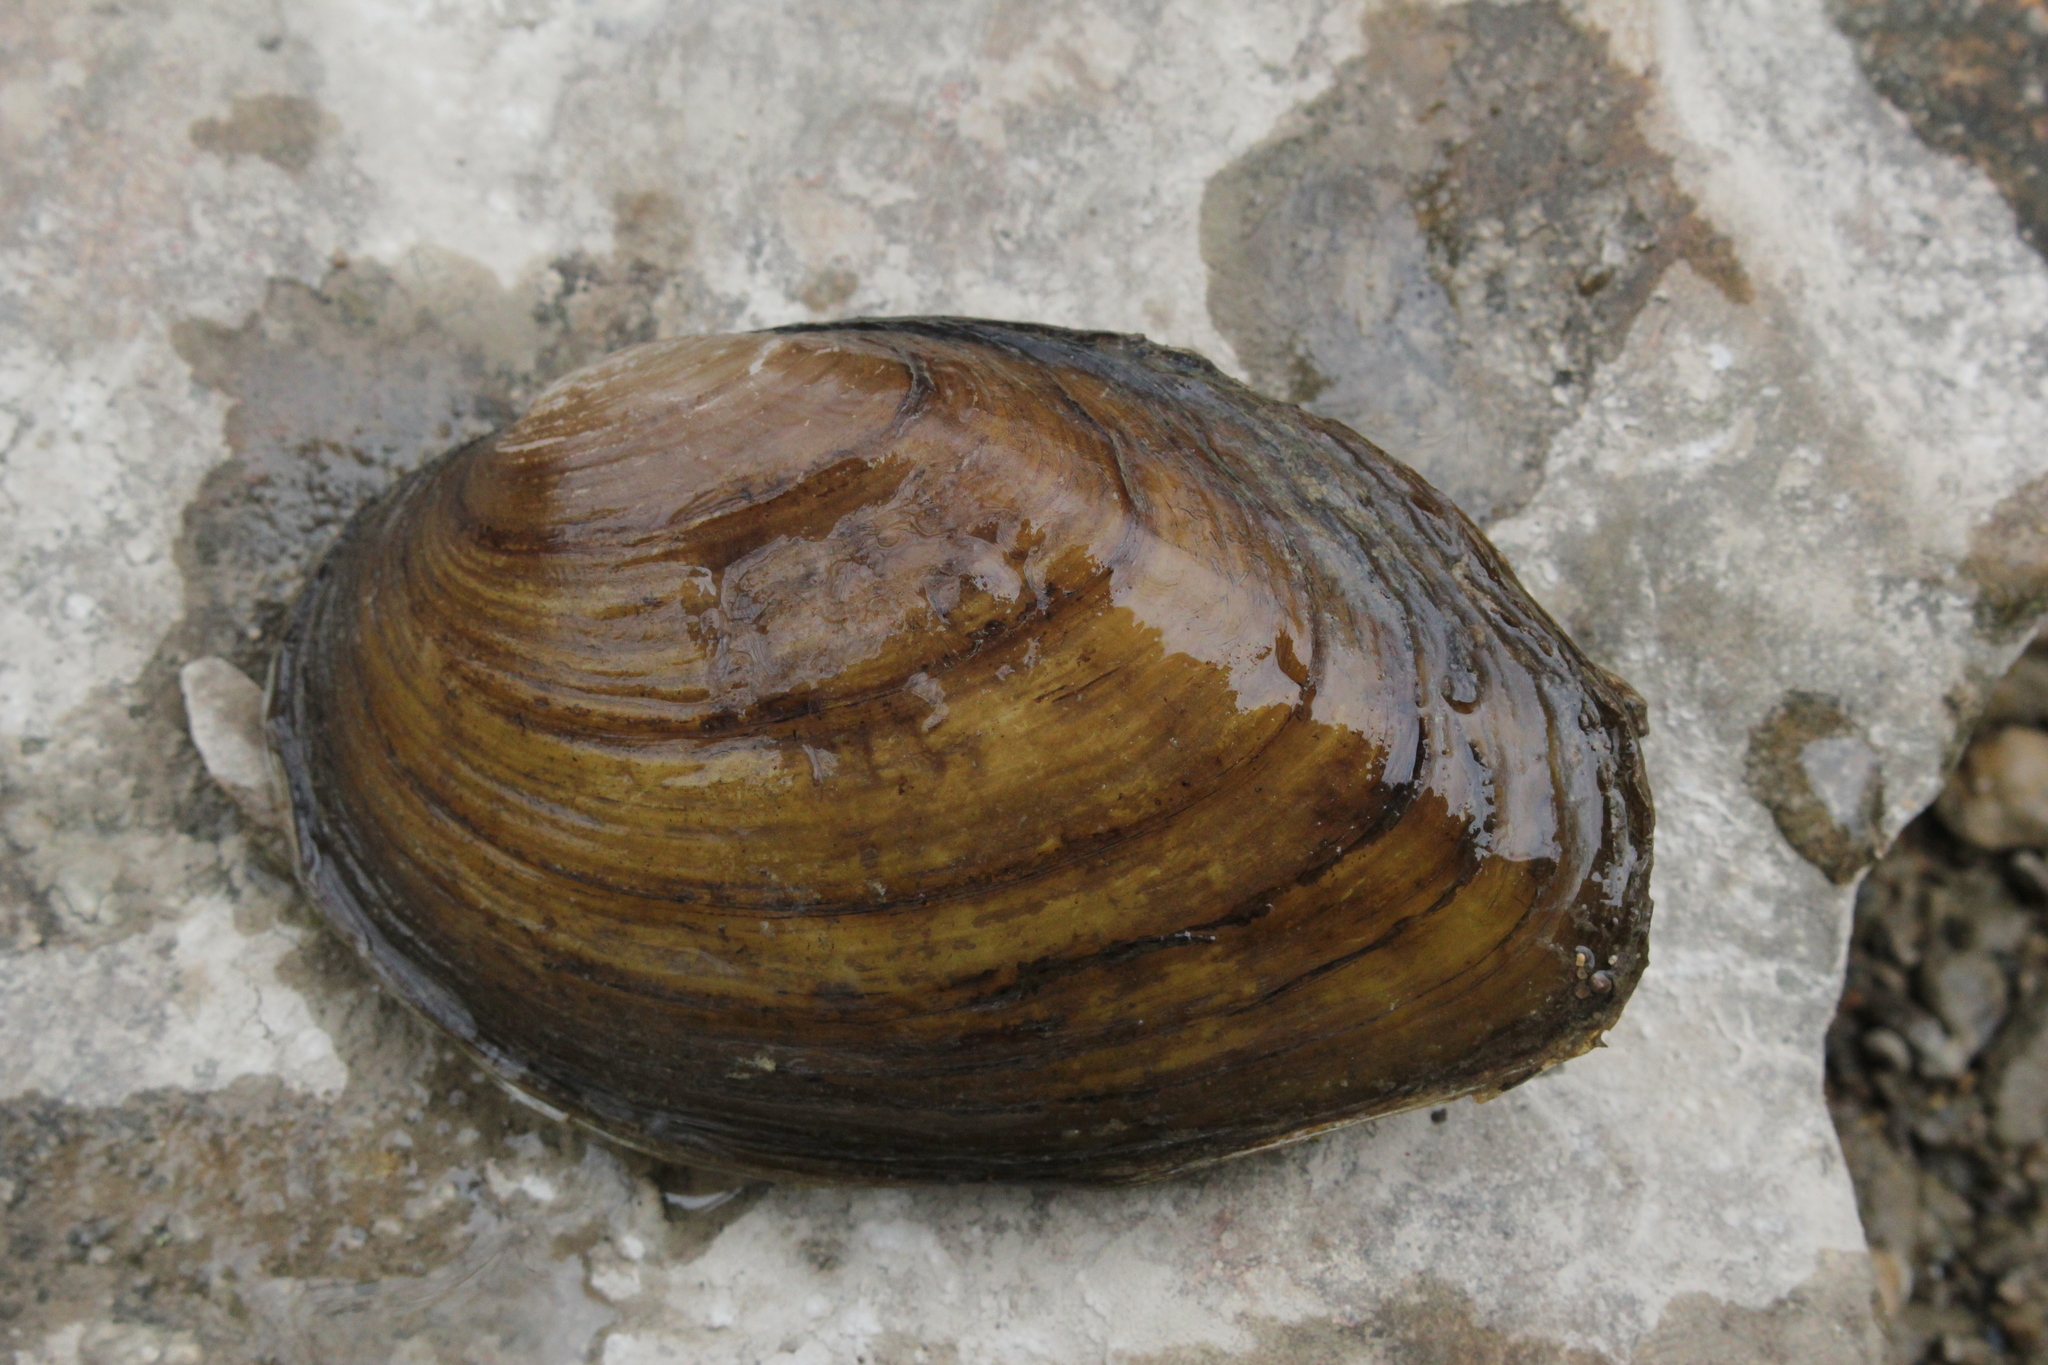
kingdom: Animalia
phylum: Mollusca
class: Bivalvia
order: Unionida
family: Unionidae
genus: Ortmanniana
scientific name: Ortmanniana ligamentina
